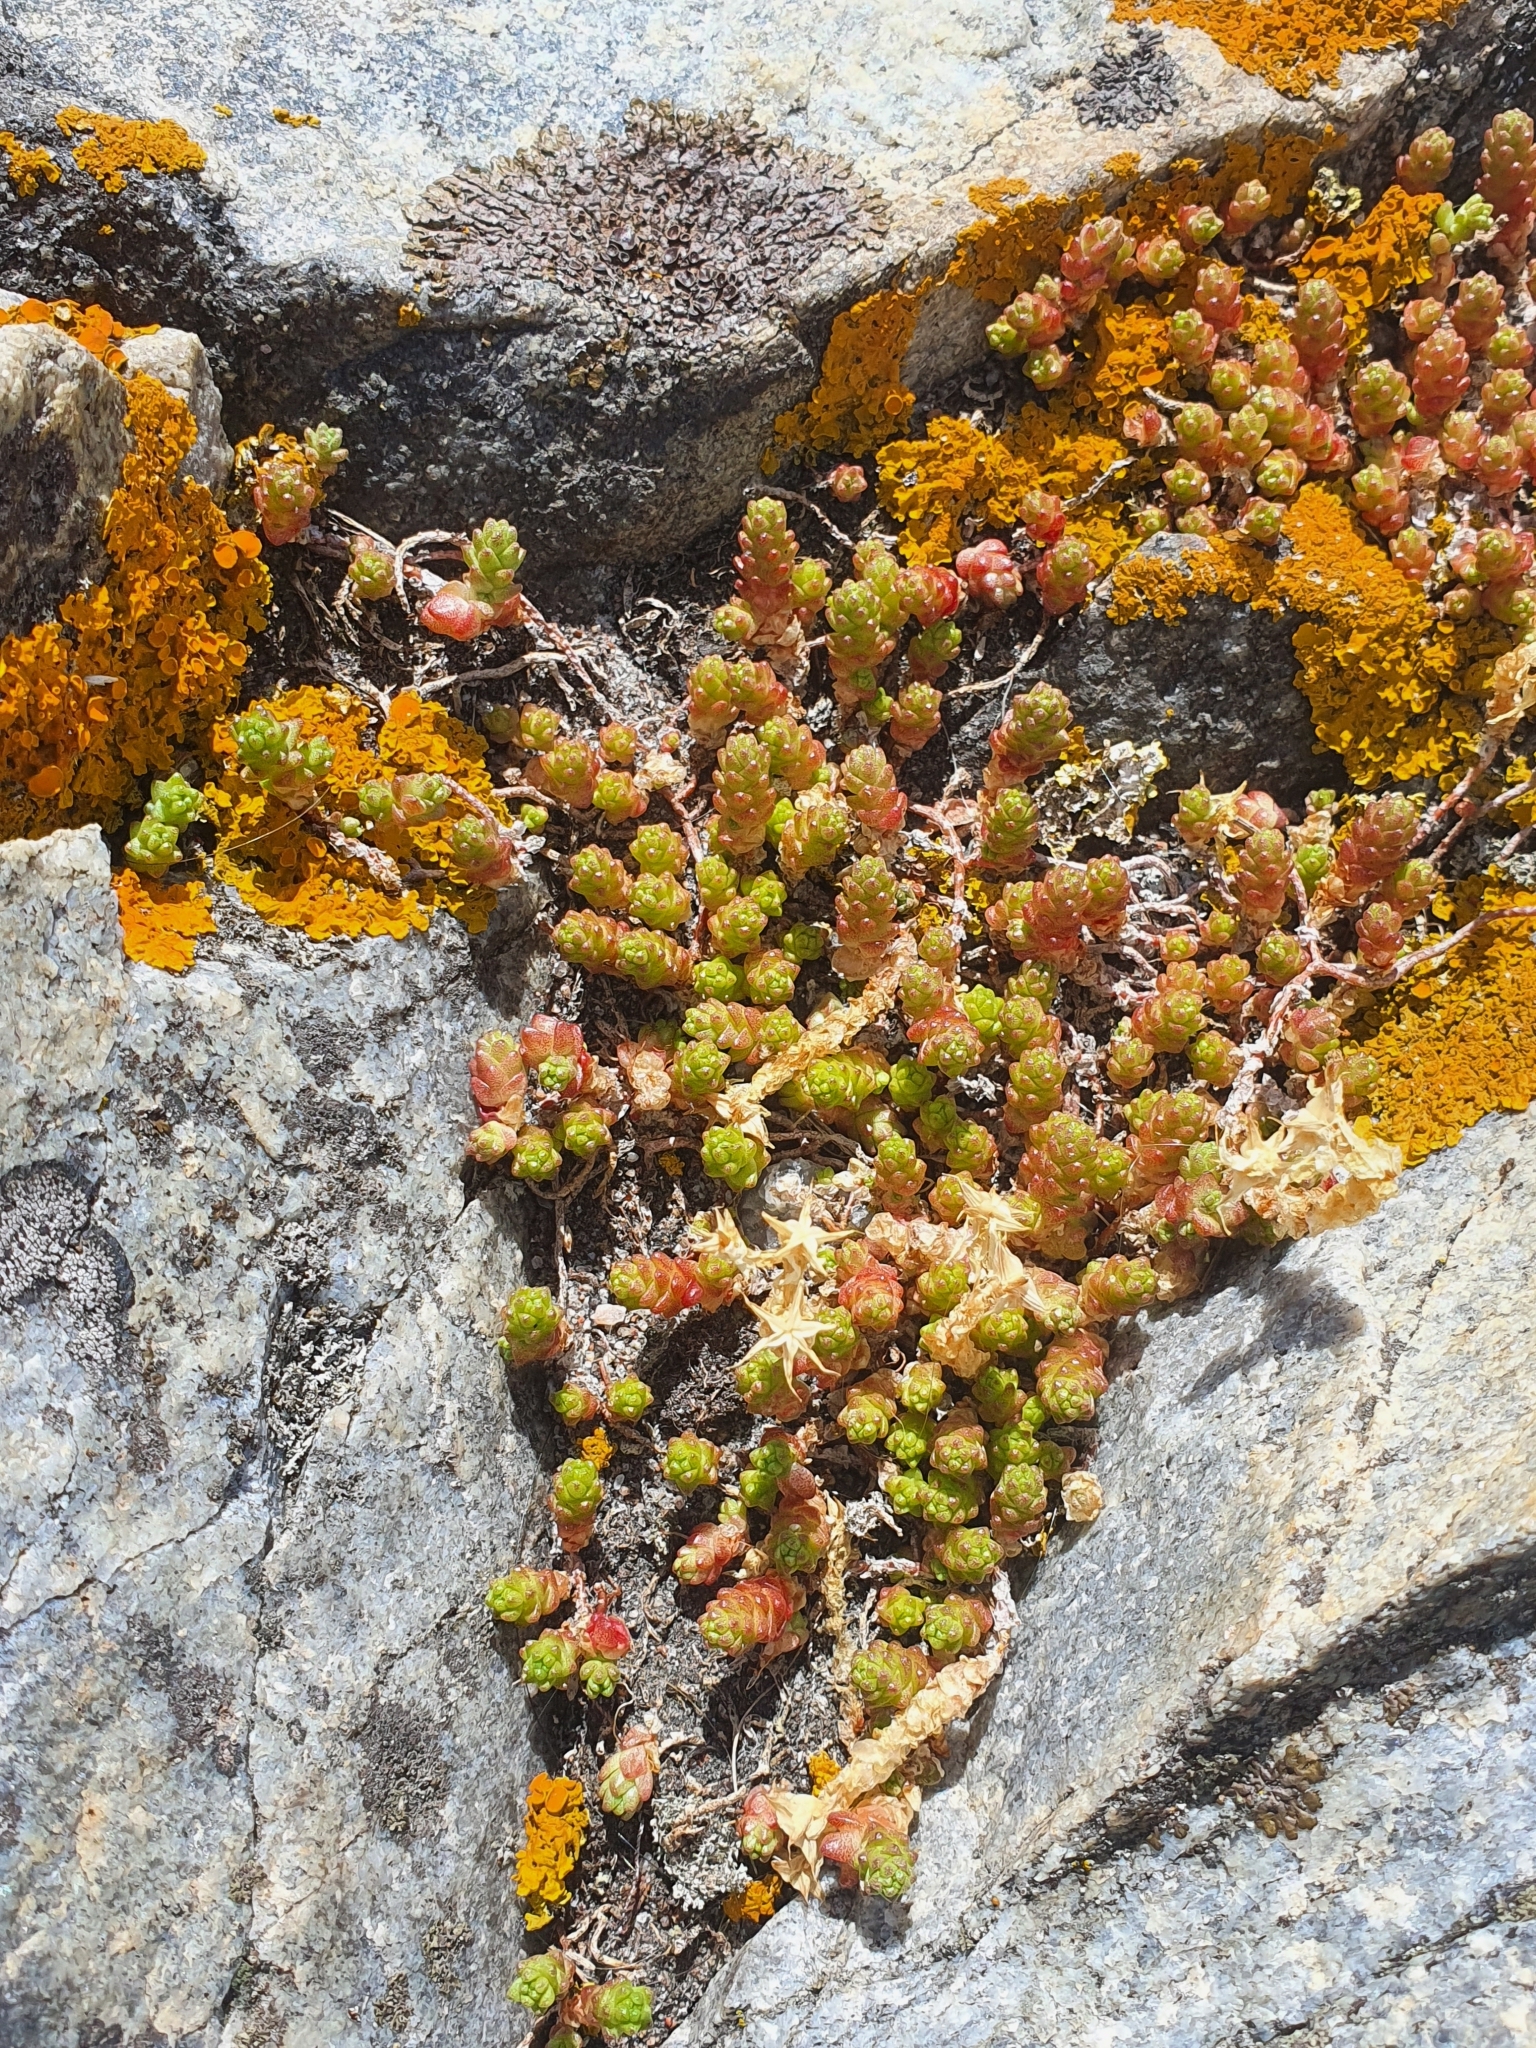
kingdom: Plantae
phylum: Tracheophyta
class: Magnoliopsida
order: Saxifragales
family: Crassulaceae
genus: Sedum
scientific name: Sedum acre
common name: Biting stonecrop
